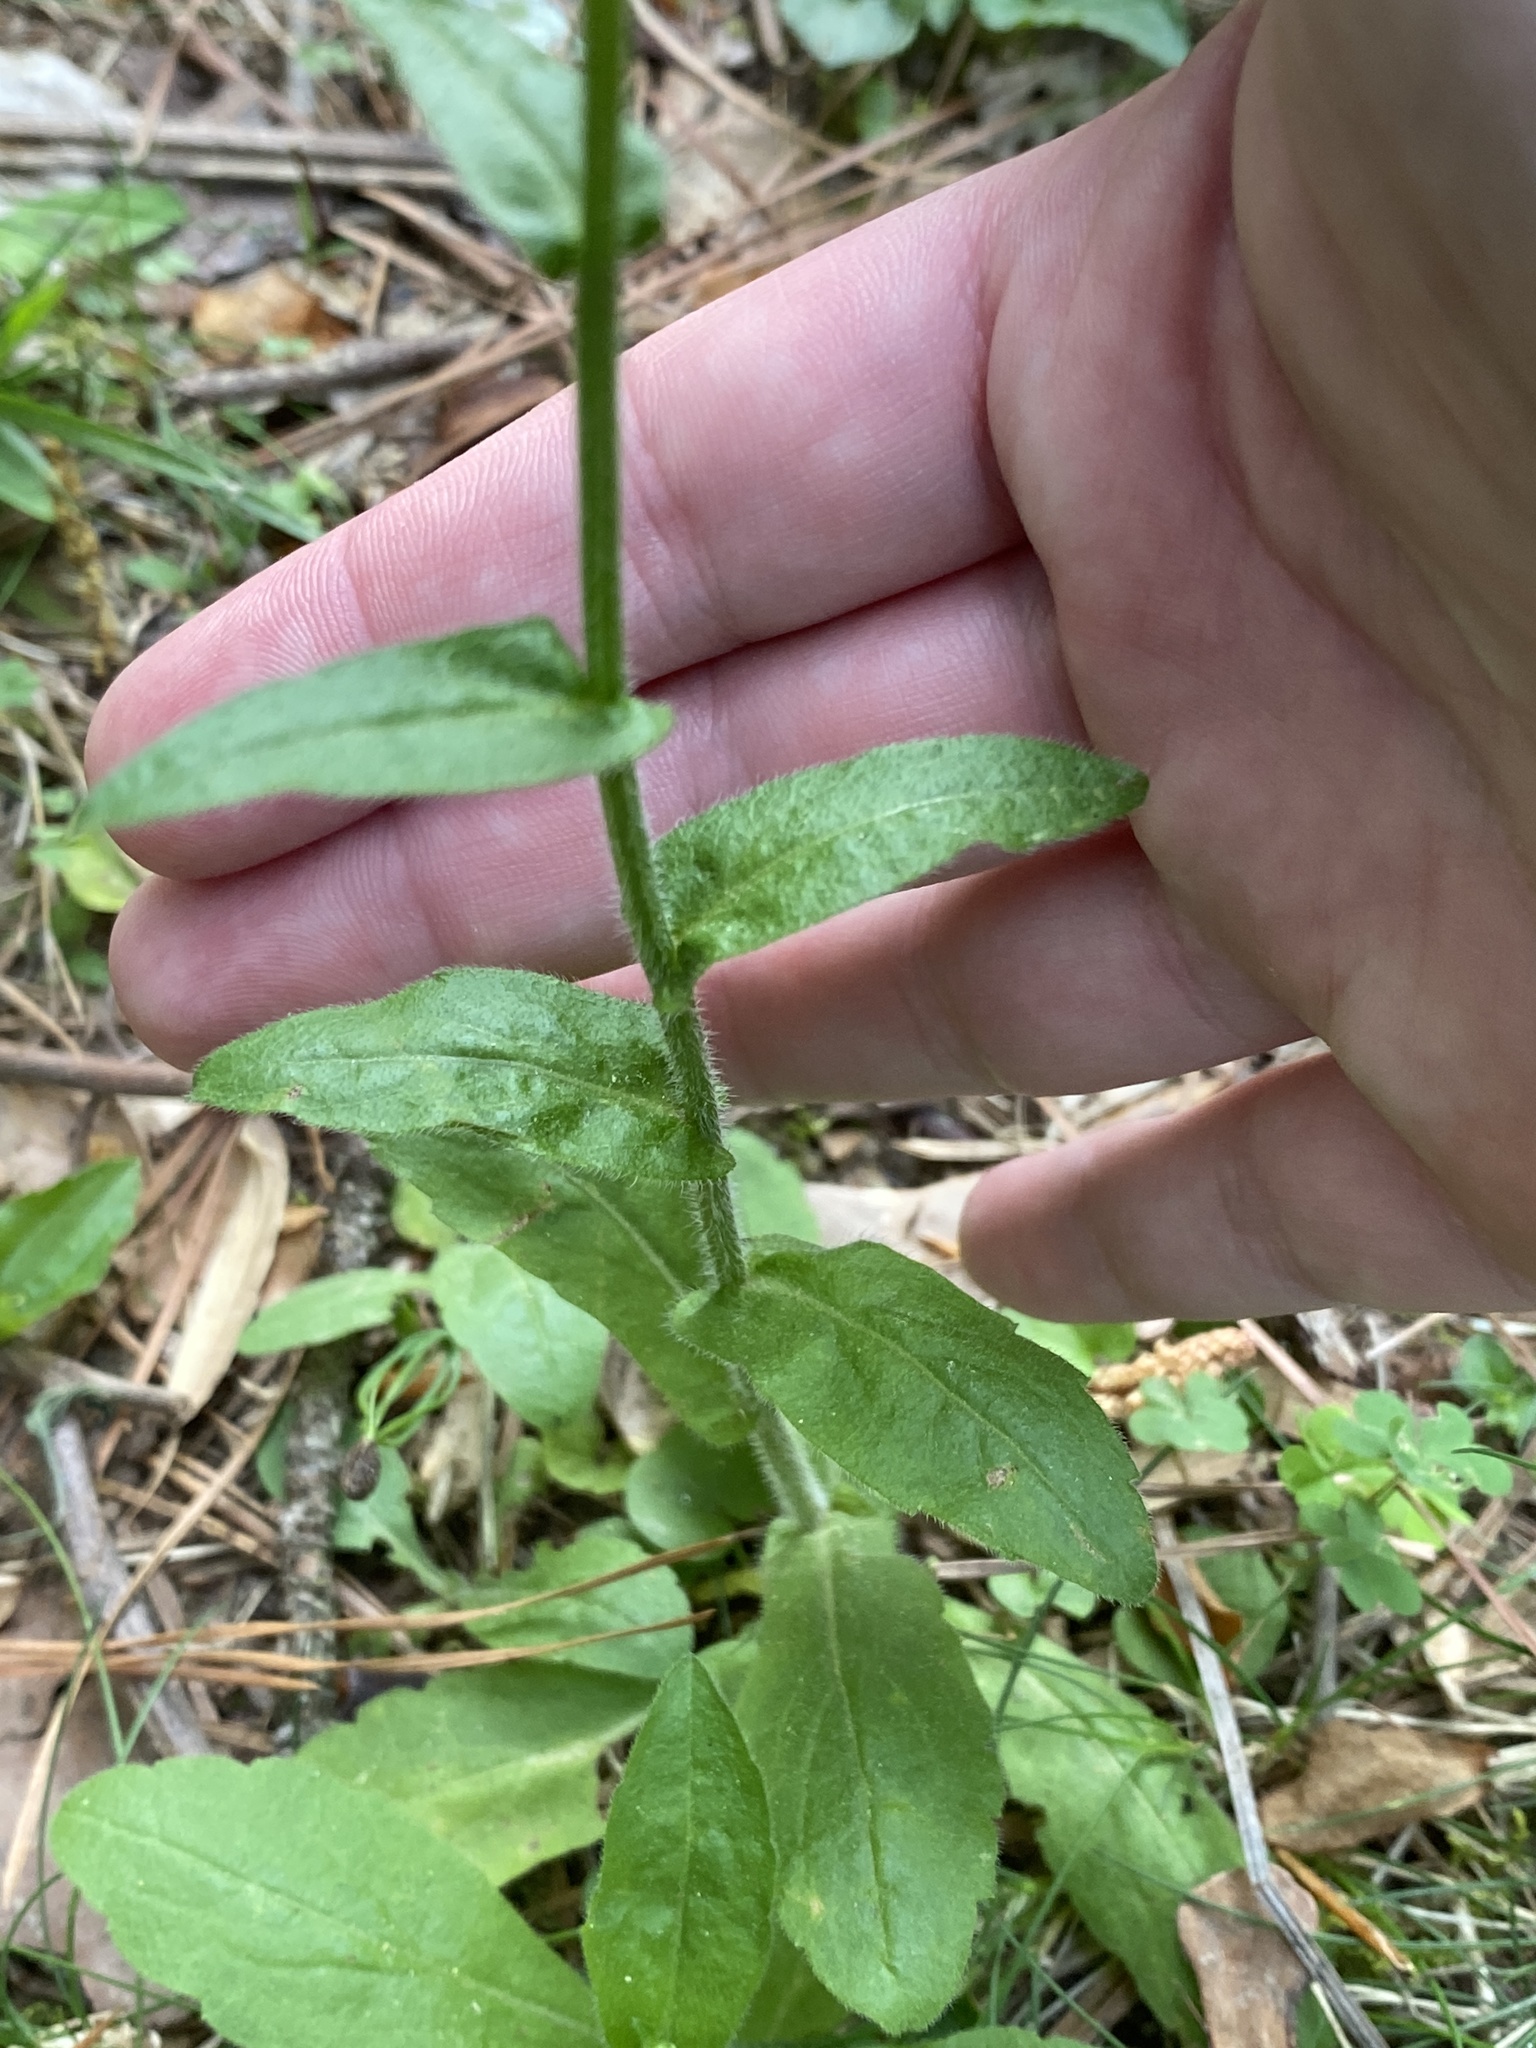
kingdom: Plantae
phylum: Tracheophyta
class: Magnoliopsida
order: Asterales
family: Asteraceae
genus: Erigeron
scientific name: Erigeron philadelphicus
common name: Robin's-plantain
